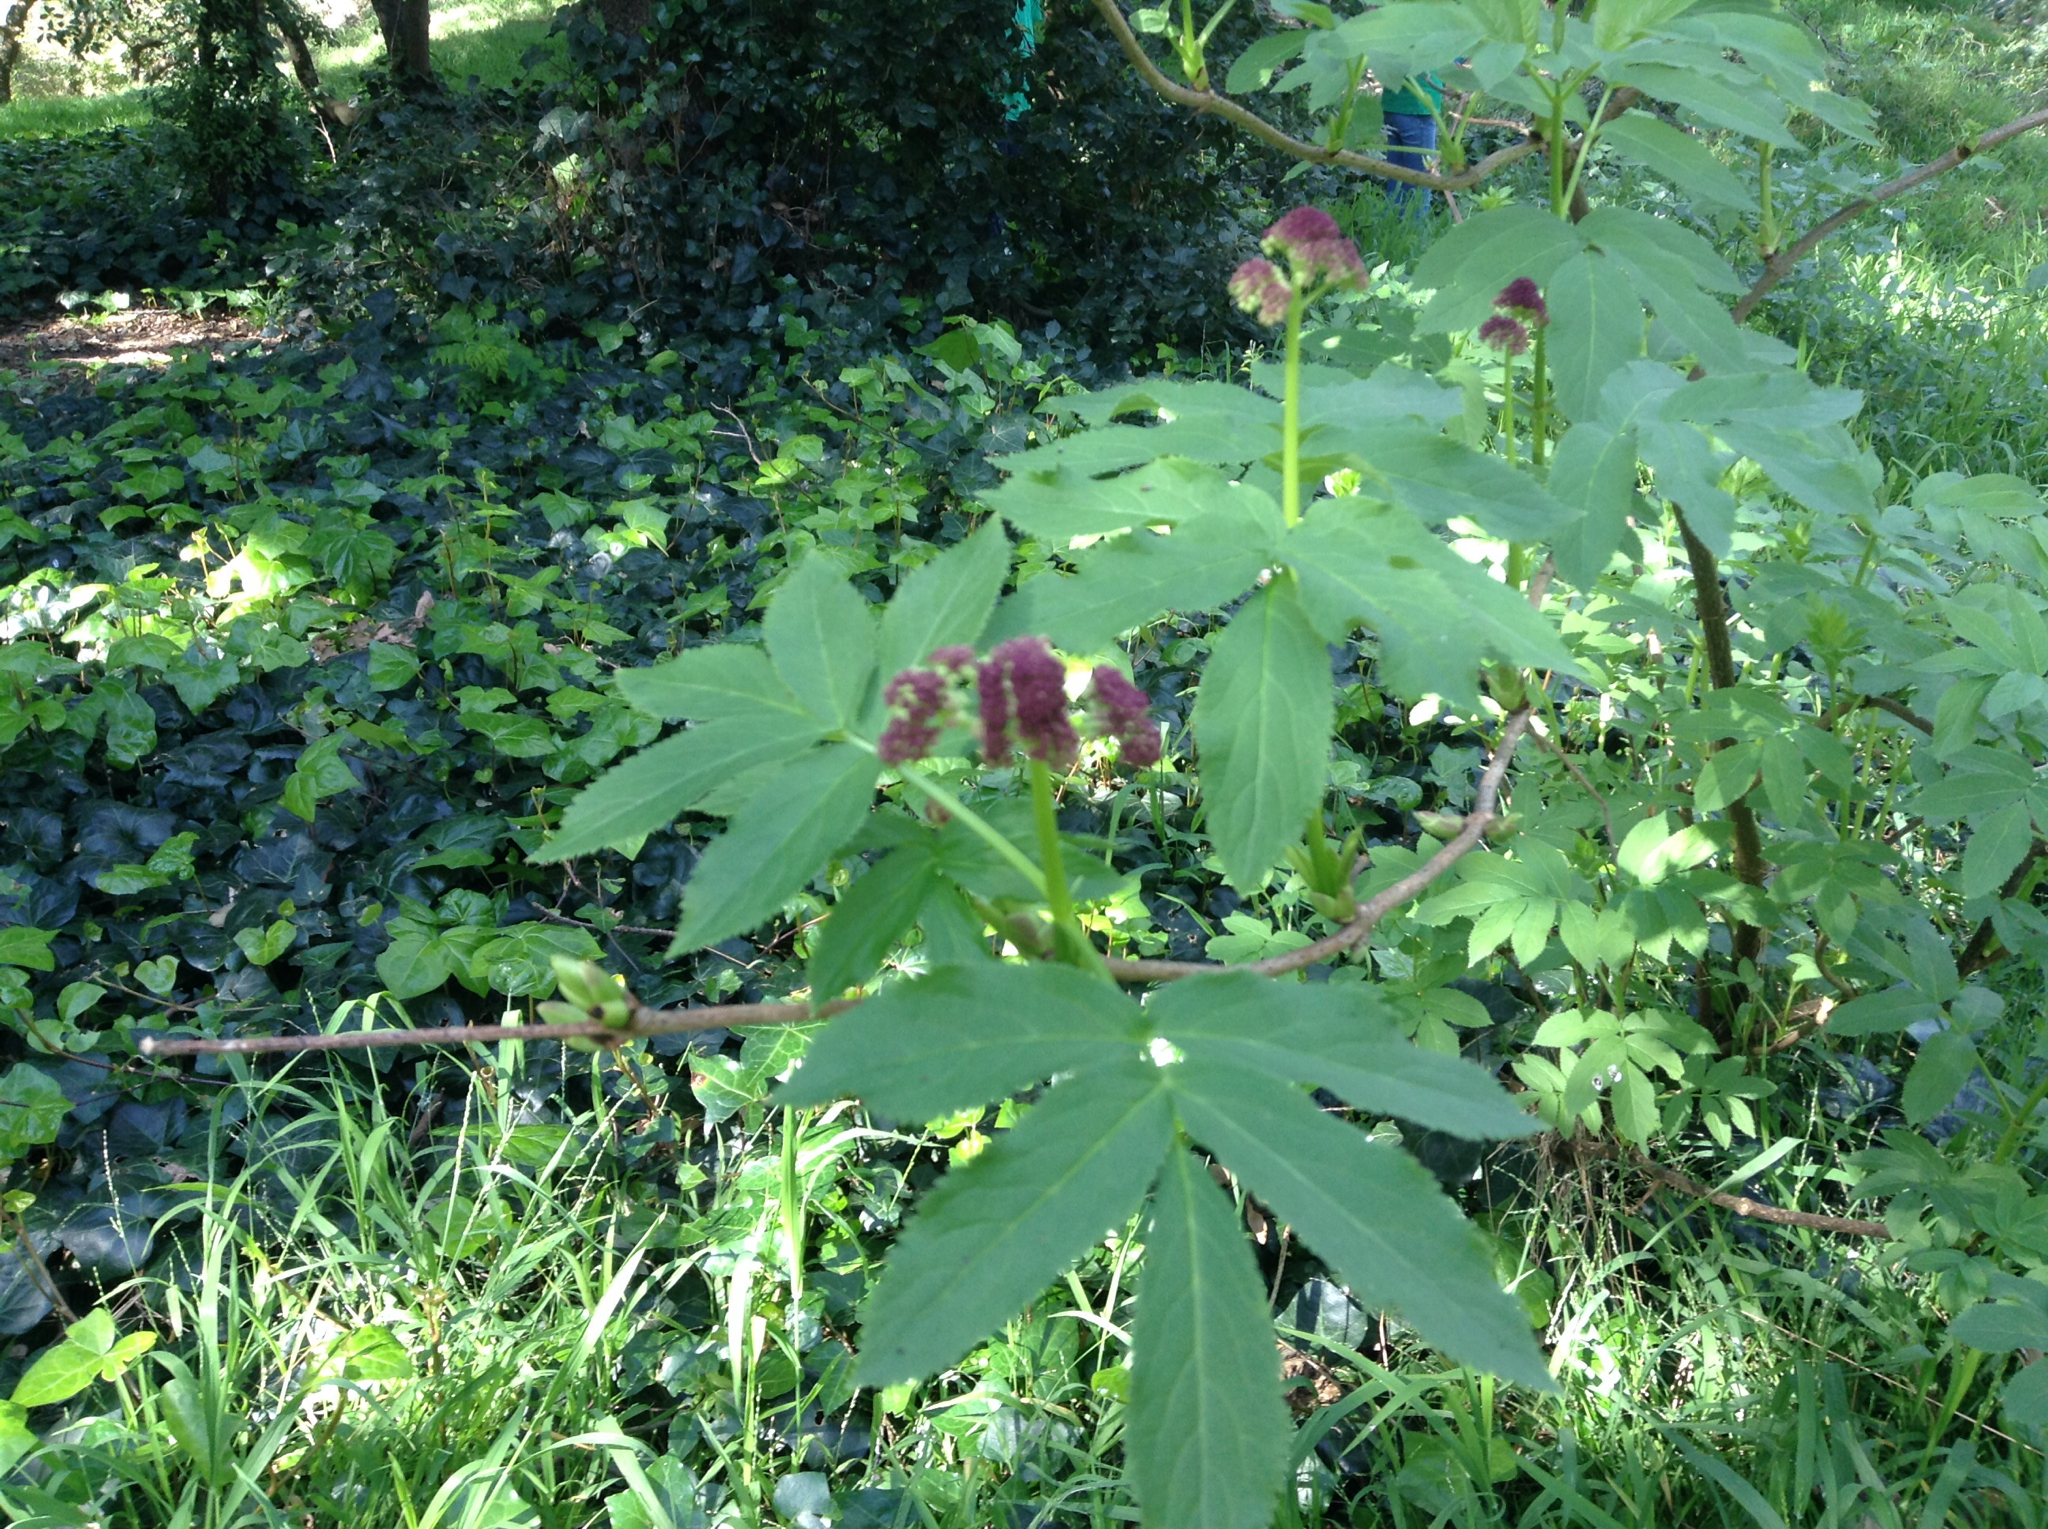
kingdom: Plantae
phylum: Tracheophyta
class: Magnoliopsida
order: Dipsacales
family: Viburnaceae
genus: Sambucus
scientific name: Sambucus racemosa
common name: Red-berried elder
